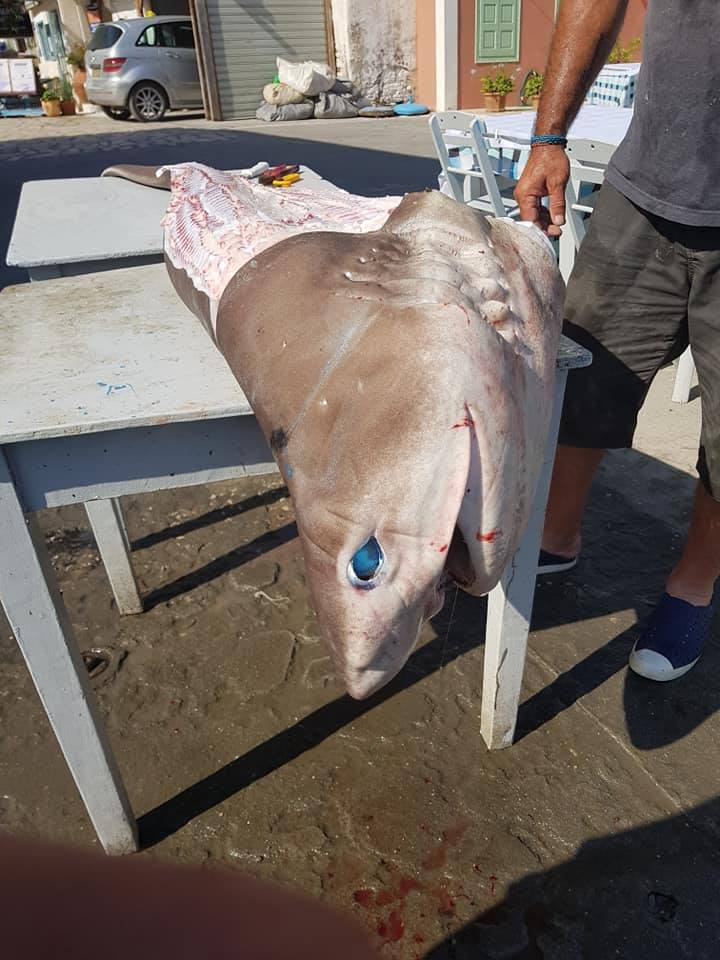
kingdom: Animalia
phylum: Chordata
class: Elasmobranchii
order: Hexanchiformes
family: Hexanchidae
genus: Hexanchus
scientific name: Hexanchus griseus
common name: Bluntnose sixgill shark
